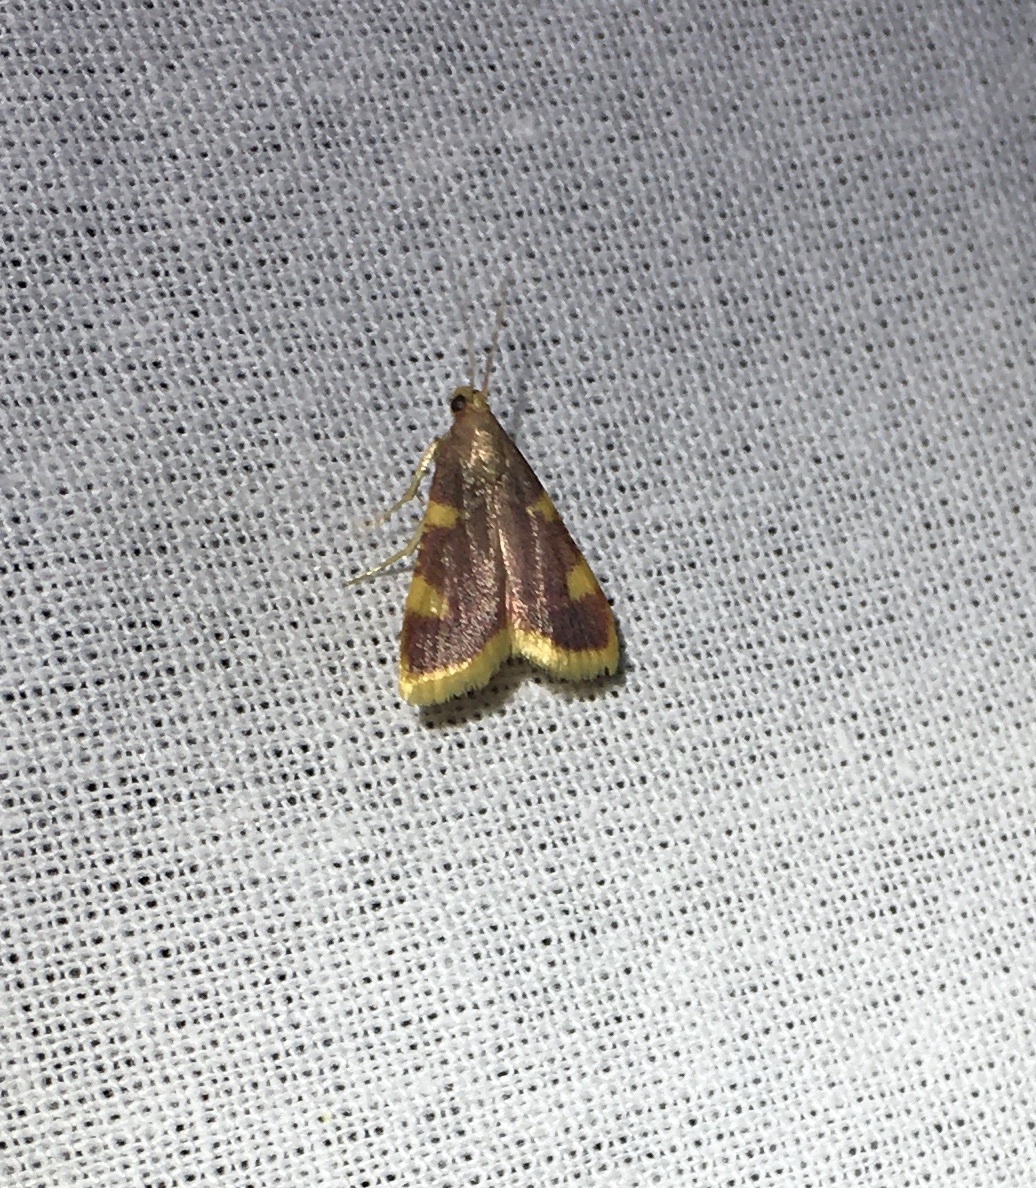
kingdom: Animalia
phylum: Arthropoda
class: Insecta
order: Lepidoptera
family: Pyralidae
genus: Hypsopygia
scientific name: Hypsopygia costalis
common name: Gold triangle
